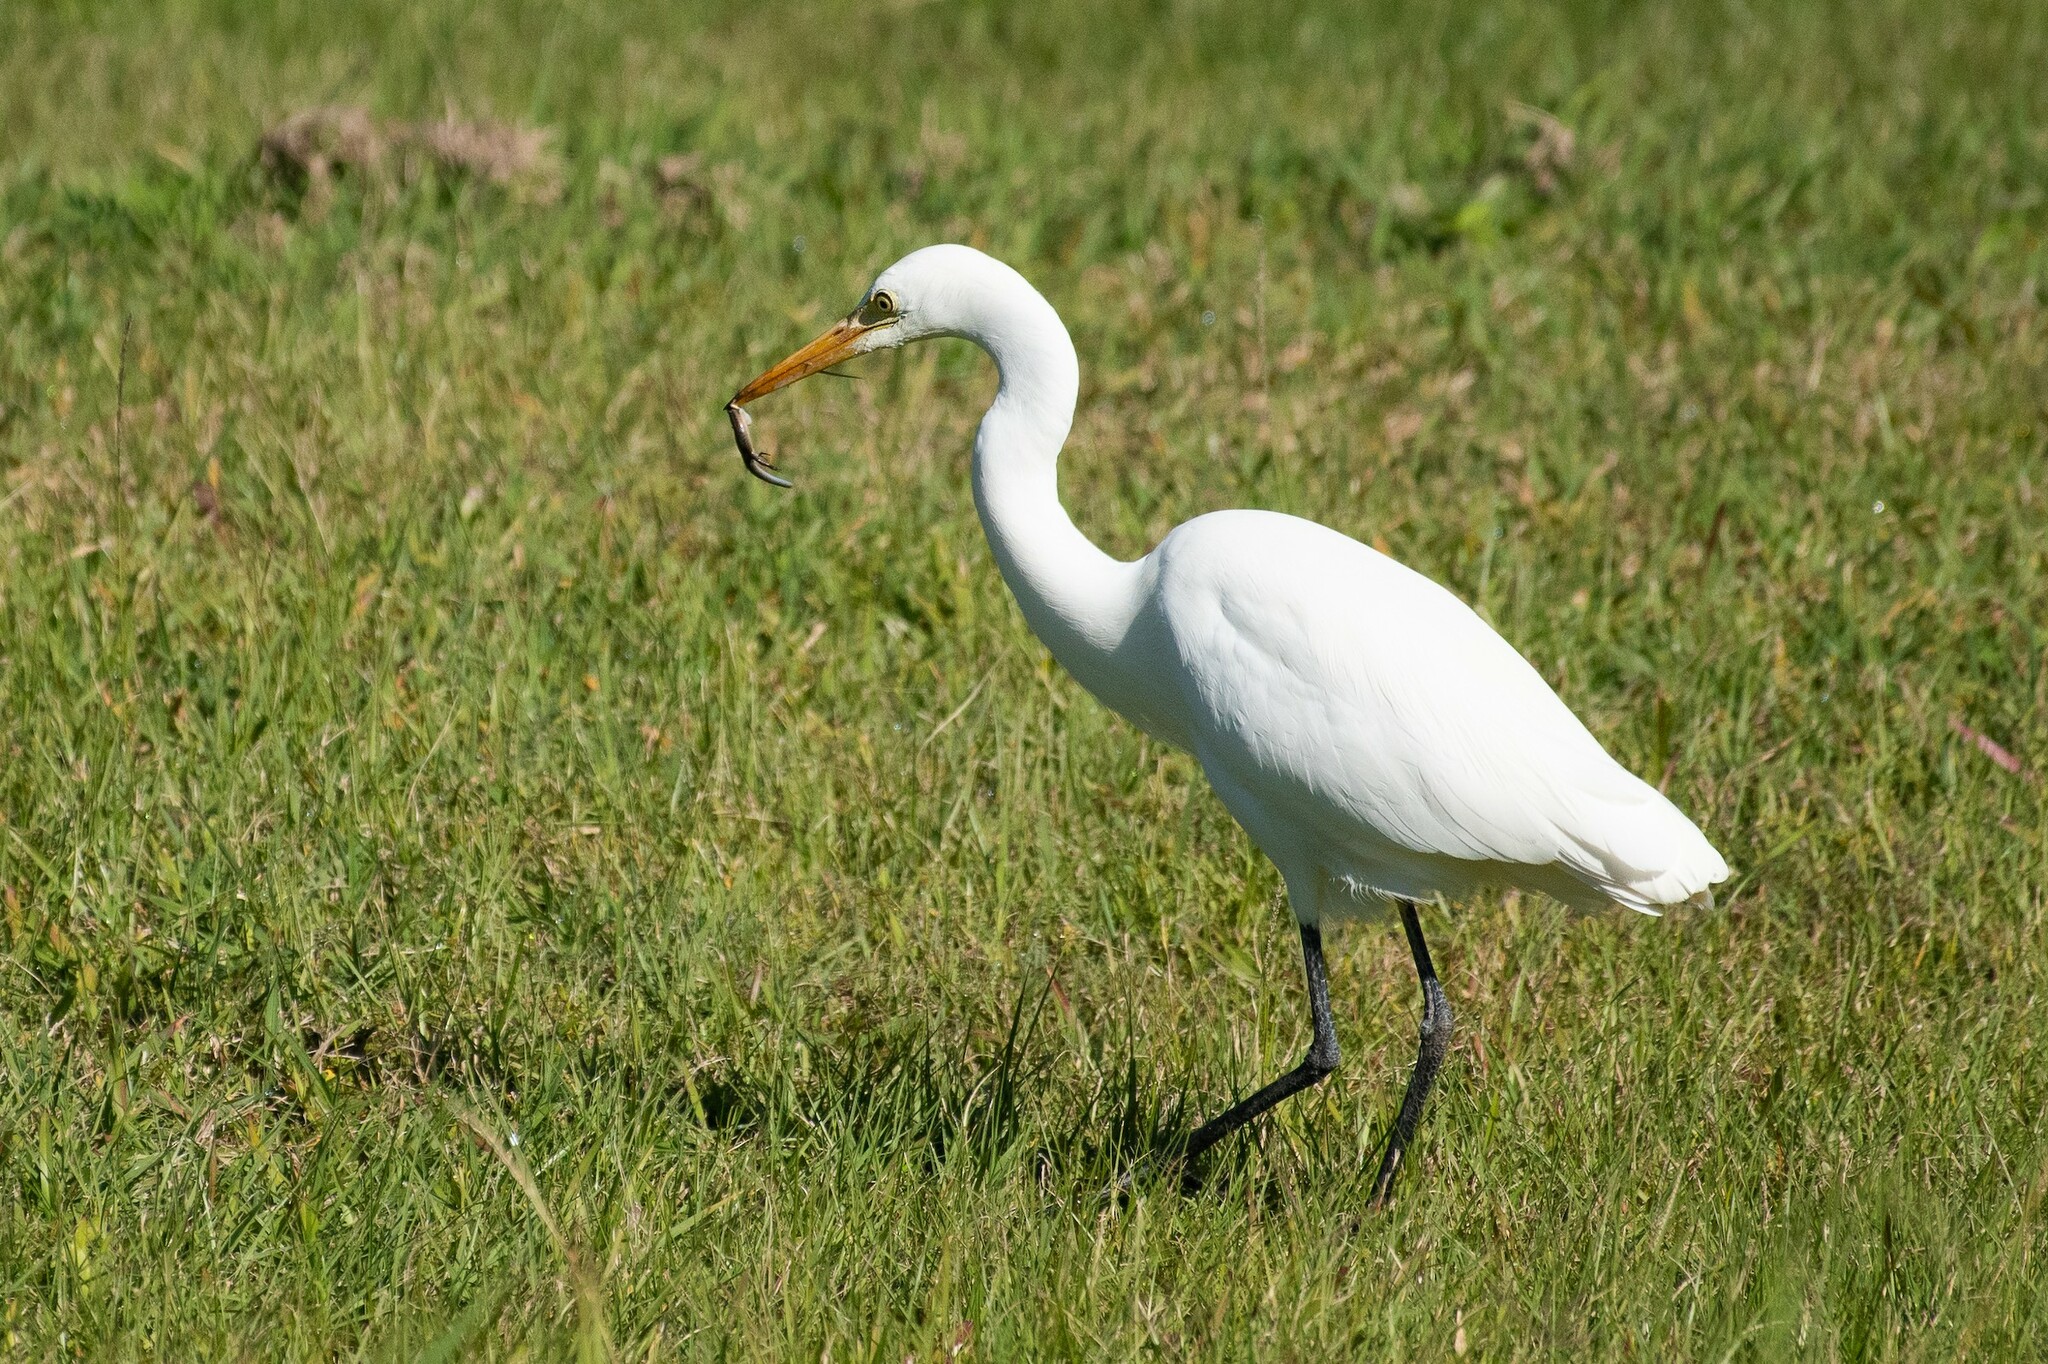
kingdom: Animalia
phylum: Chordata
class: Aves
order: Pelecaniformes
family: Ardeidae
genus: Egretta
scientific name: Egretta intermedia
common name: Intermediate egret
